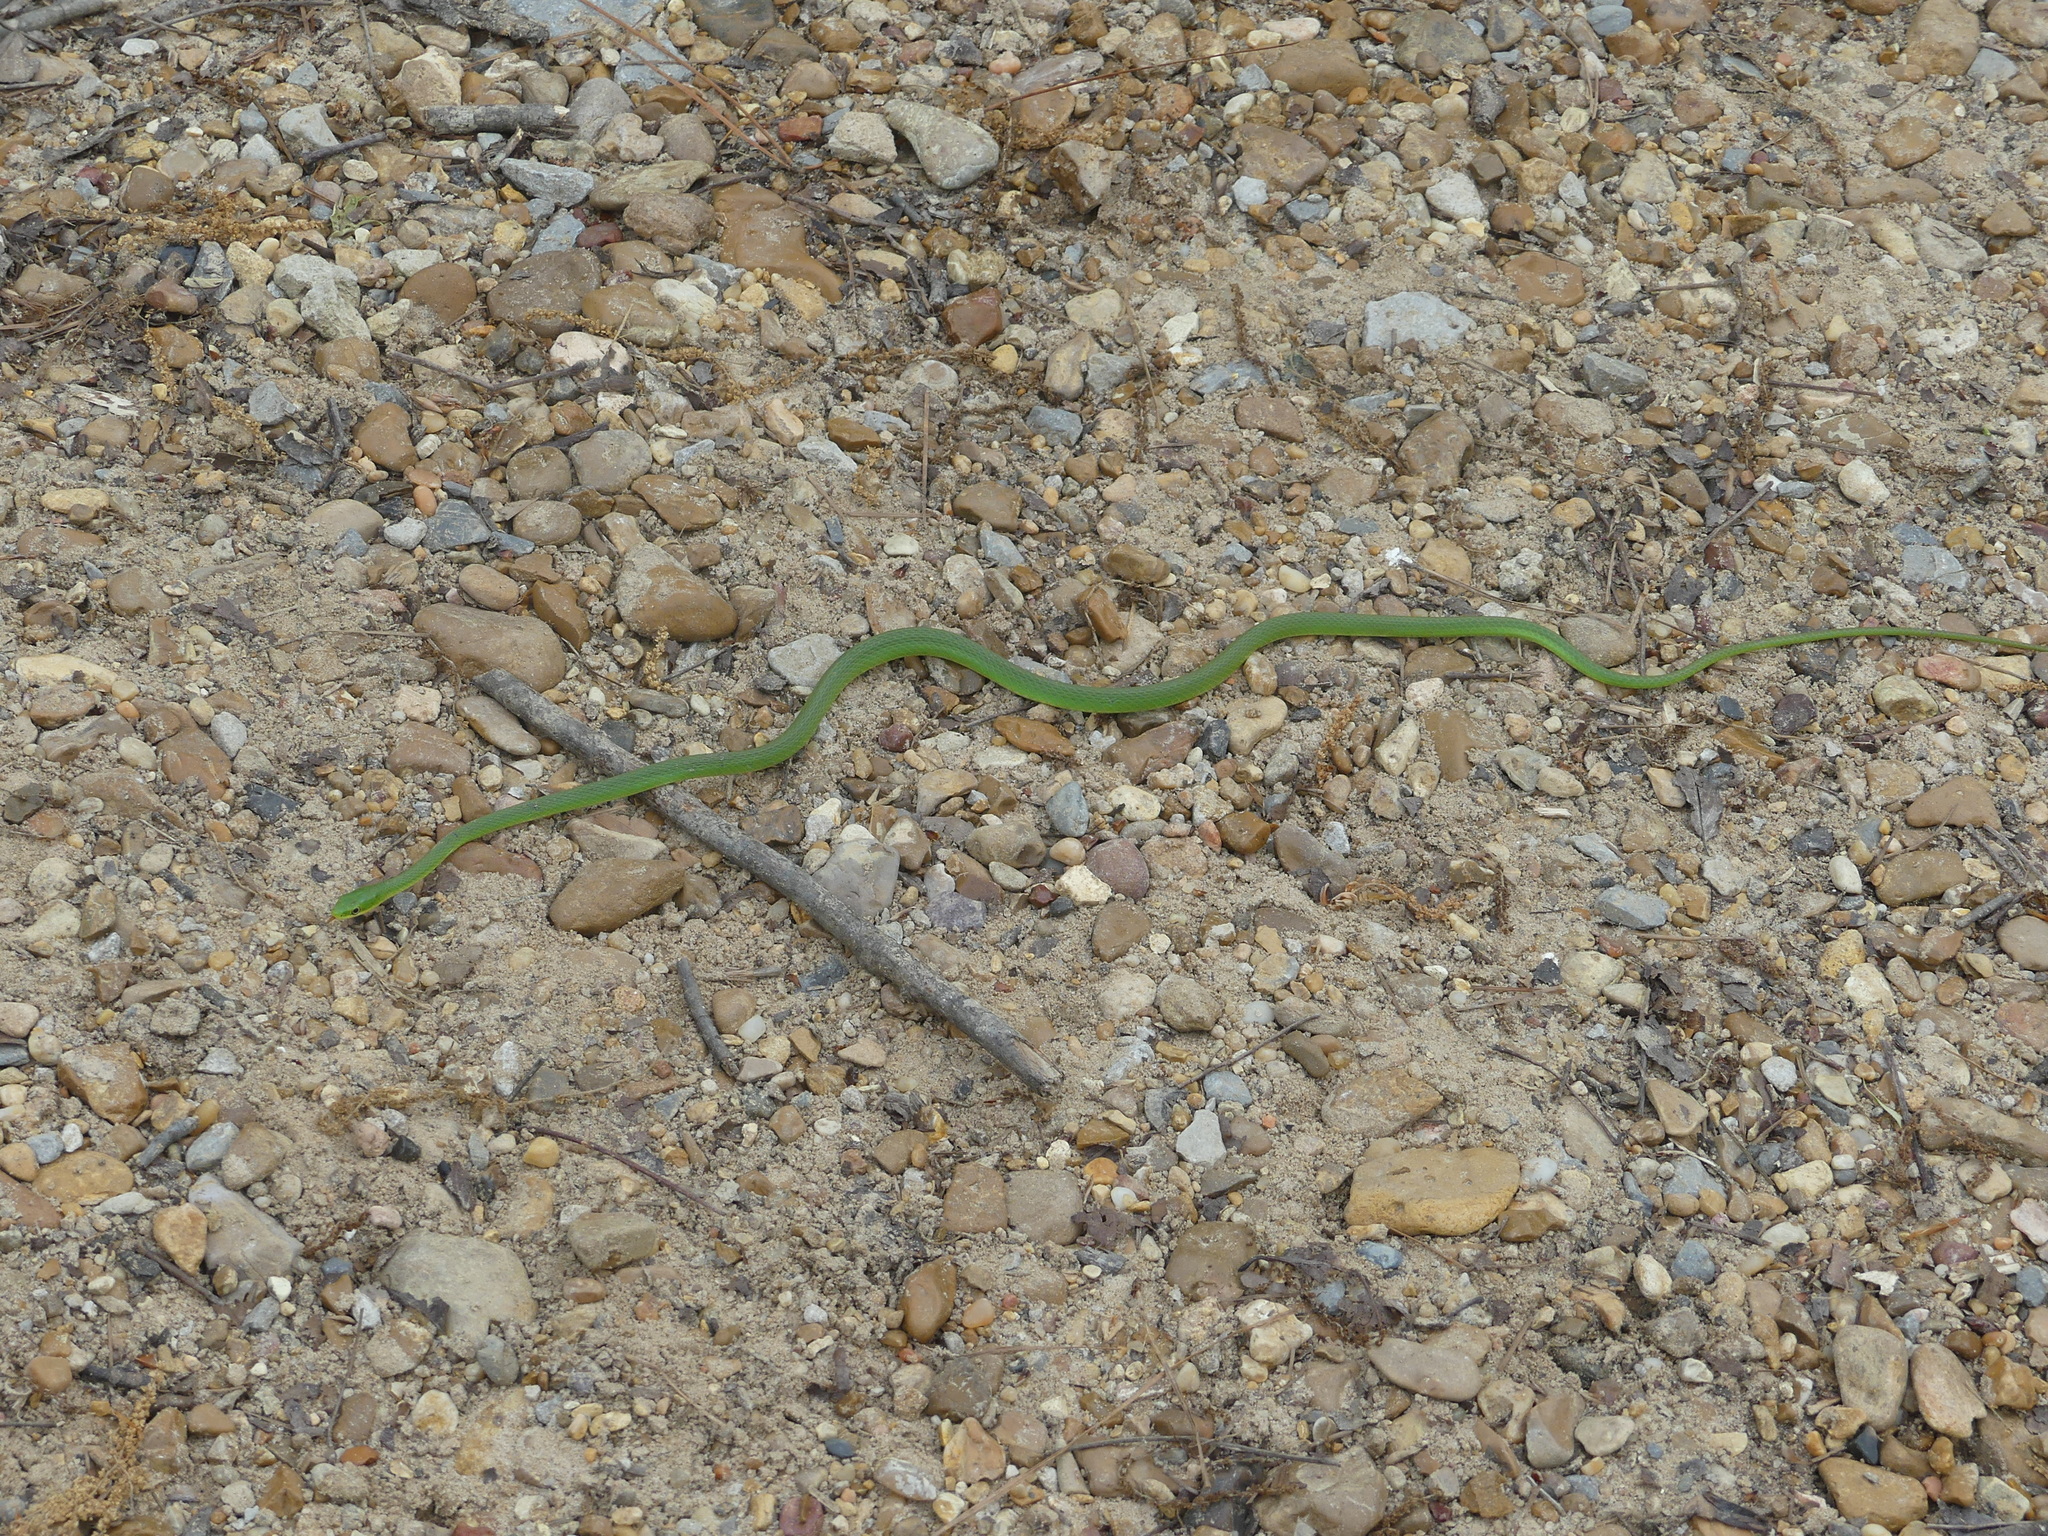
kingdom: Animalia
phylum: Chordata
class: Squamata
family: Colubridae
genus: Opheodrys
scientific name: Opheodrys aestivus
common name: Rough greensnake
